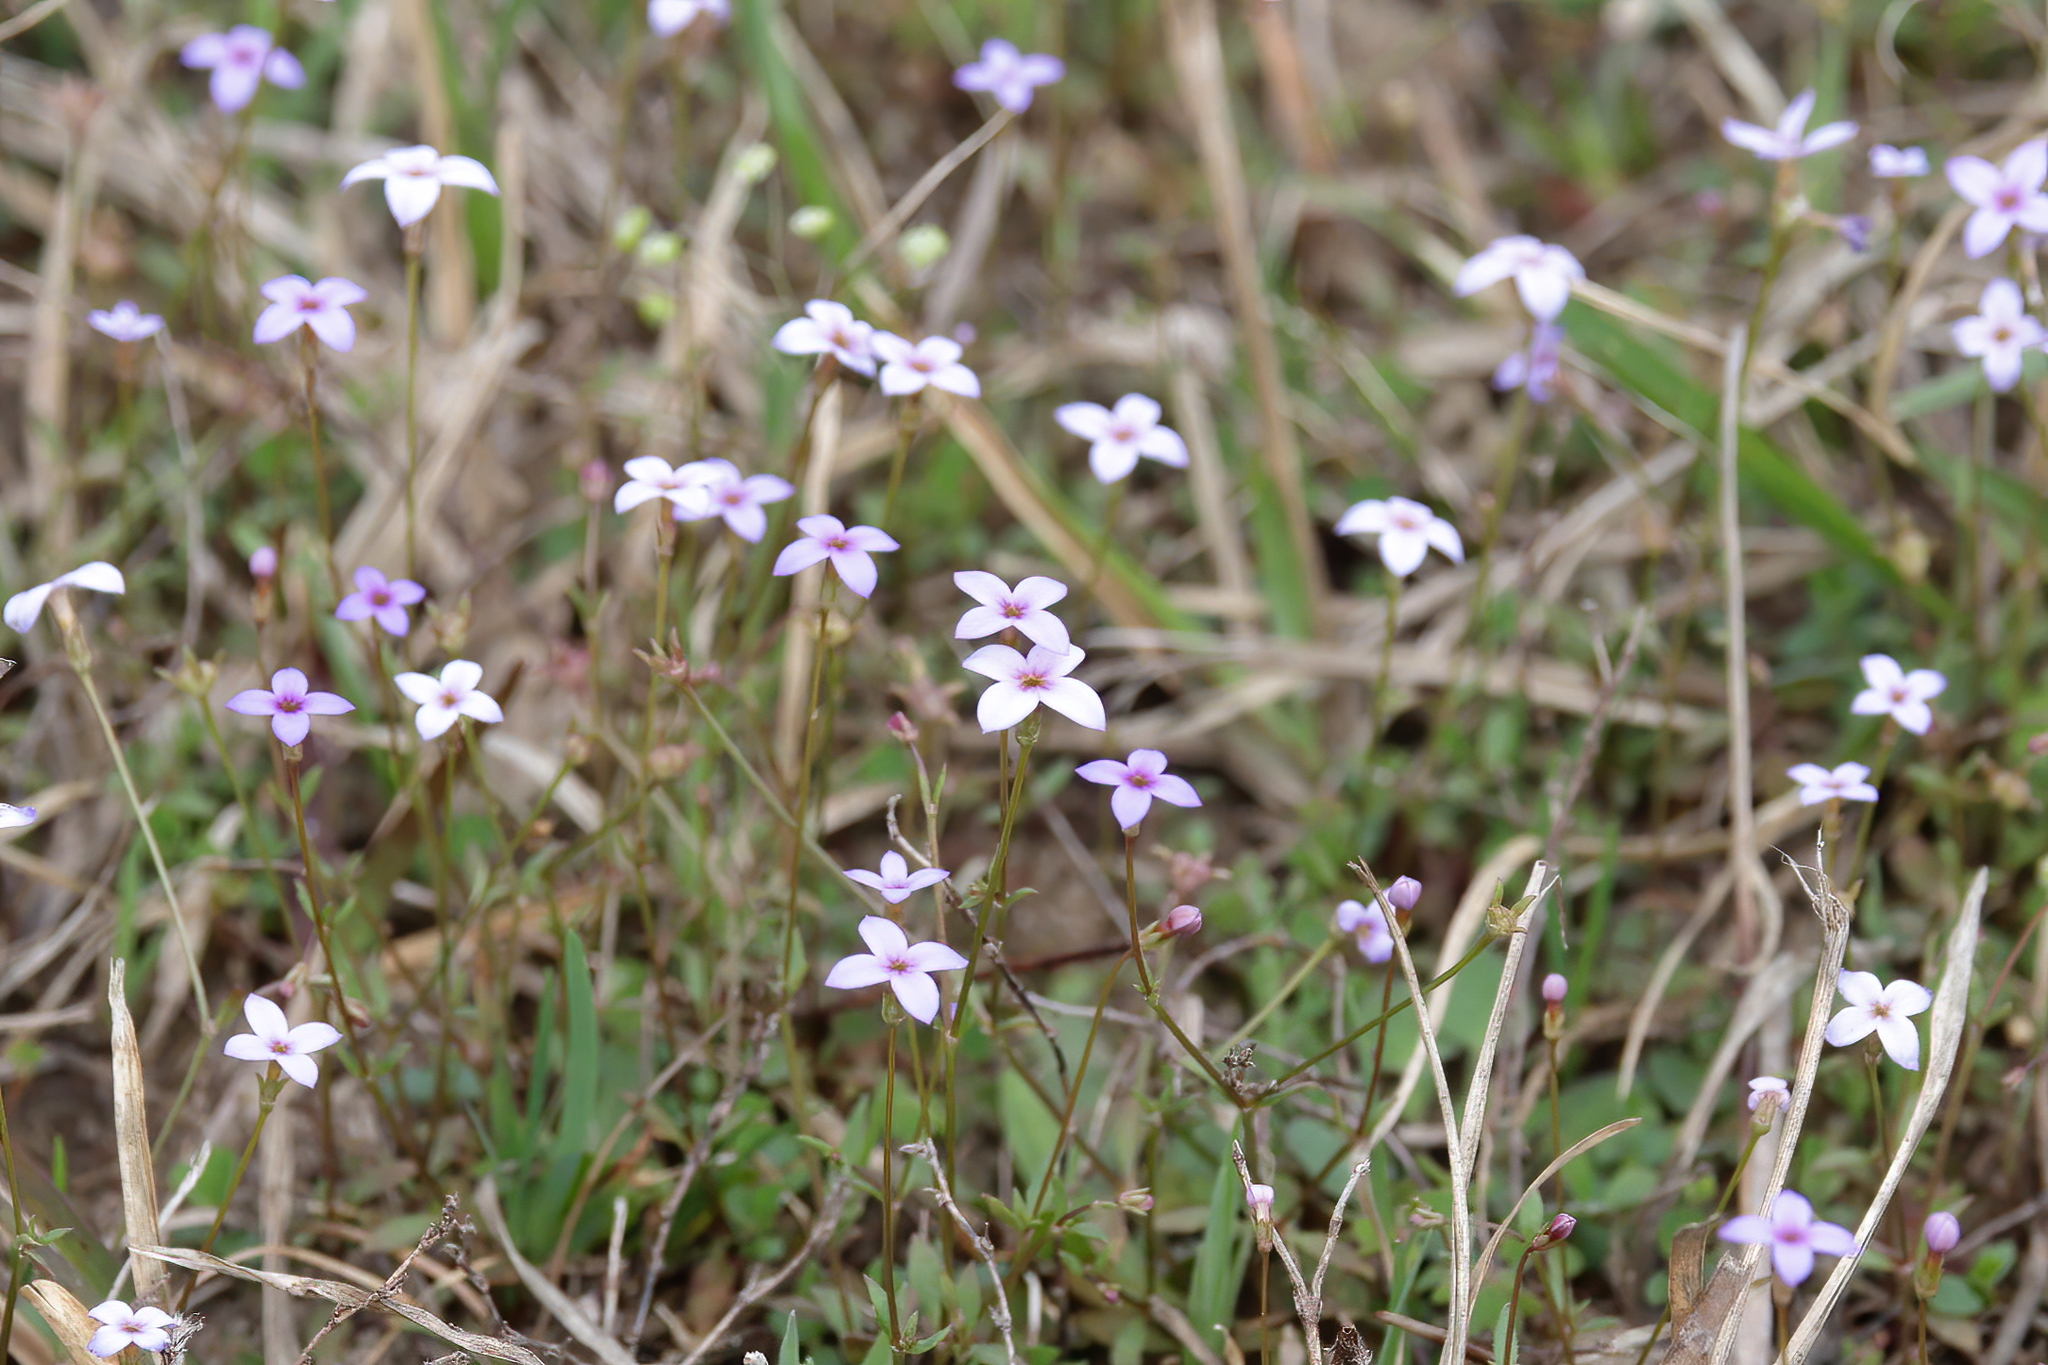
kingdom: Plantae
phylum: Tracheophyta
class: Magnoliopsida
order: Gentianales
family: Rubiaceae
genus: Houstonia
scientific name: Houstonia pusilla
